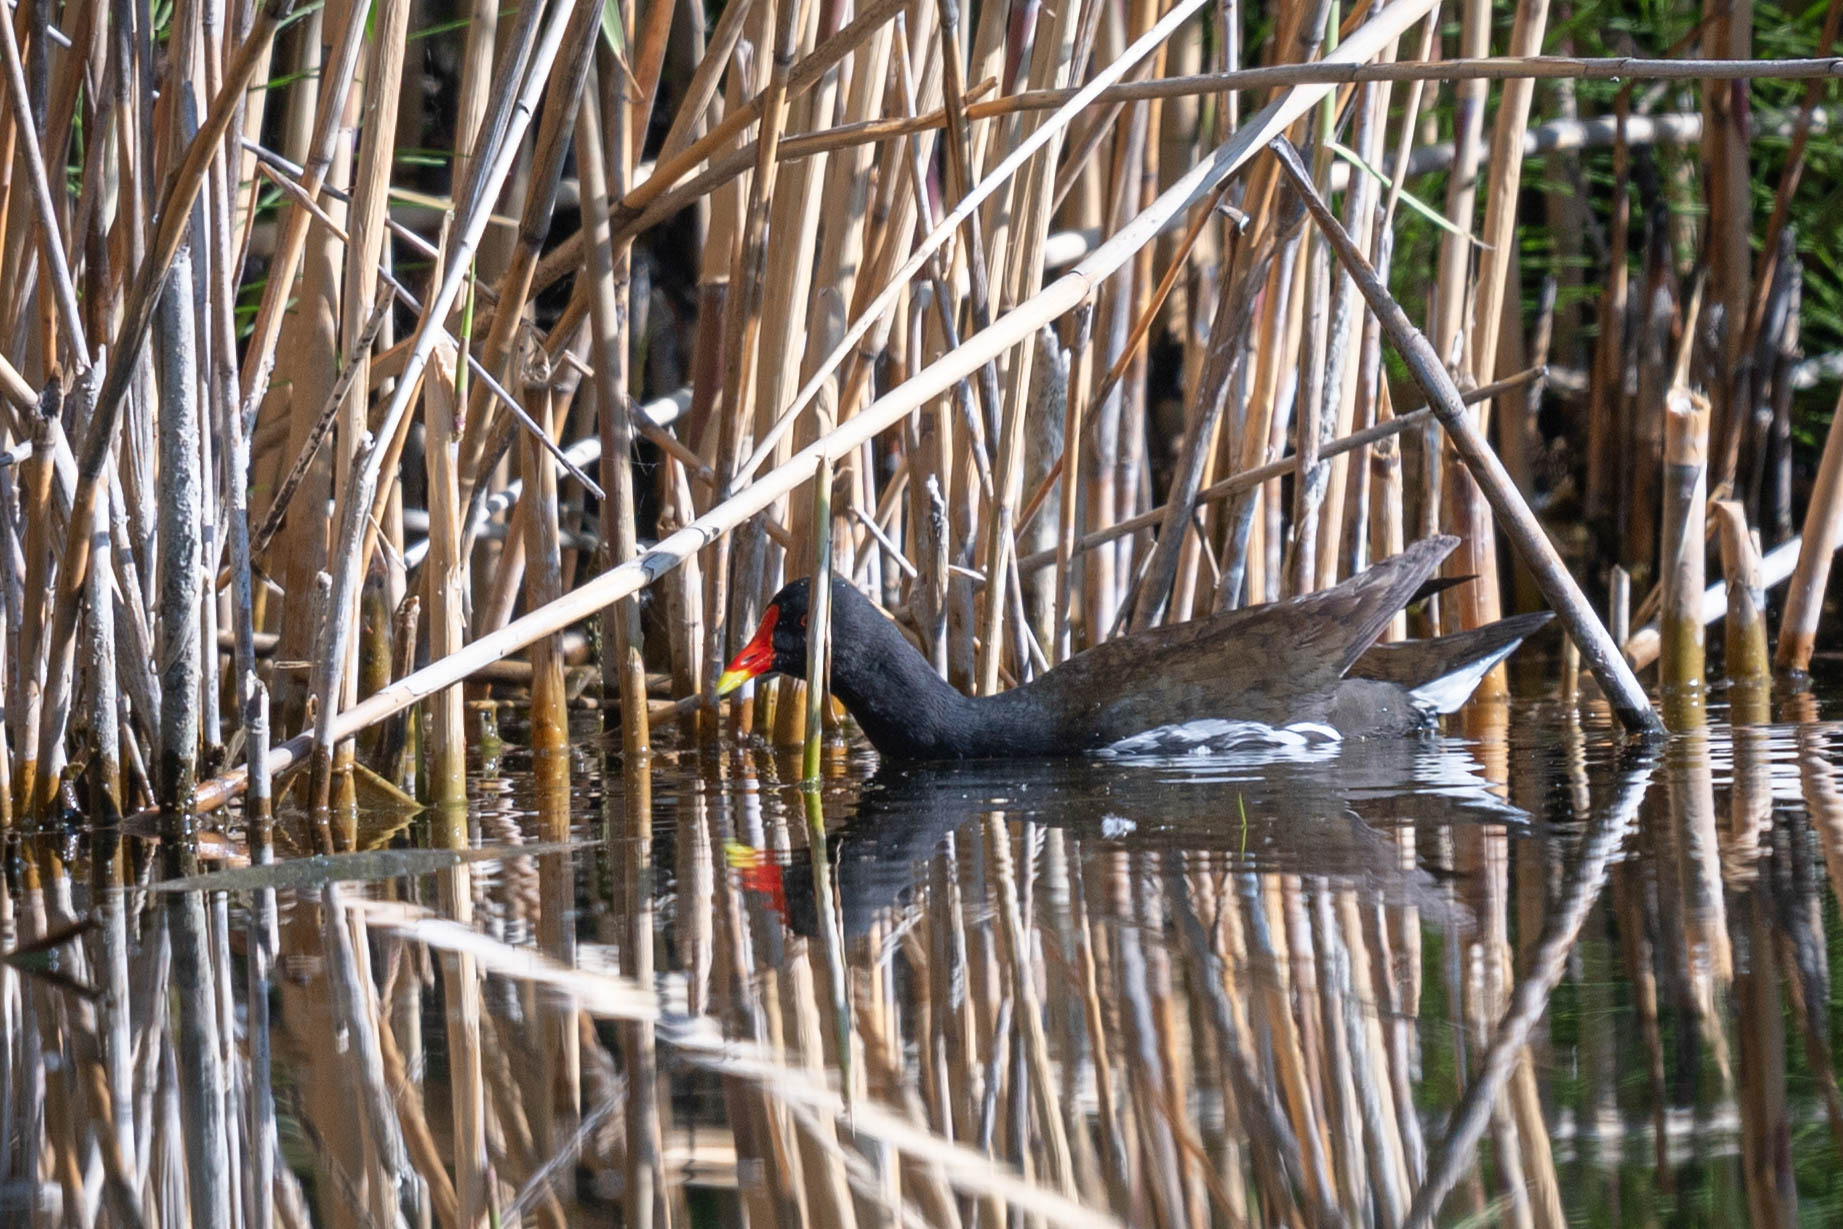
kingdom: Animalia
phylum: Chordata
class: Aves
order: Gruiformes
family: Rallidae
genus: Gallinula
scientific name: Gallinula chloropus
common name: Common moorhen
